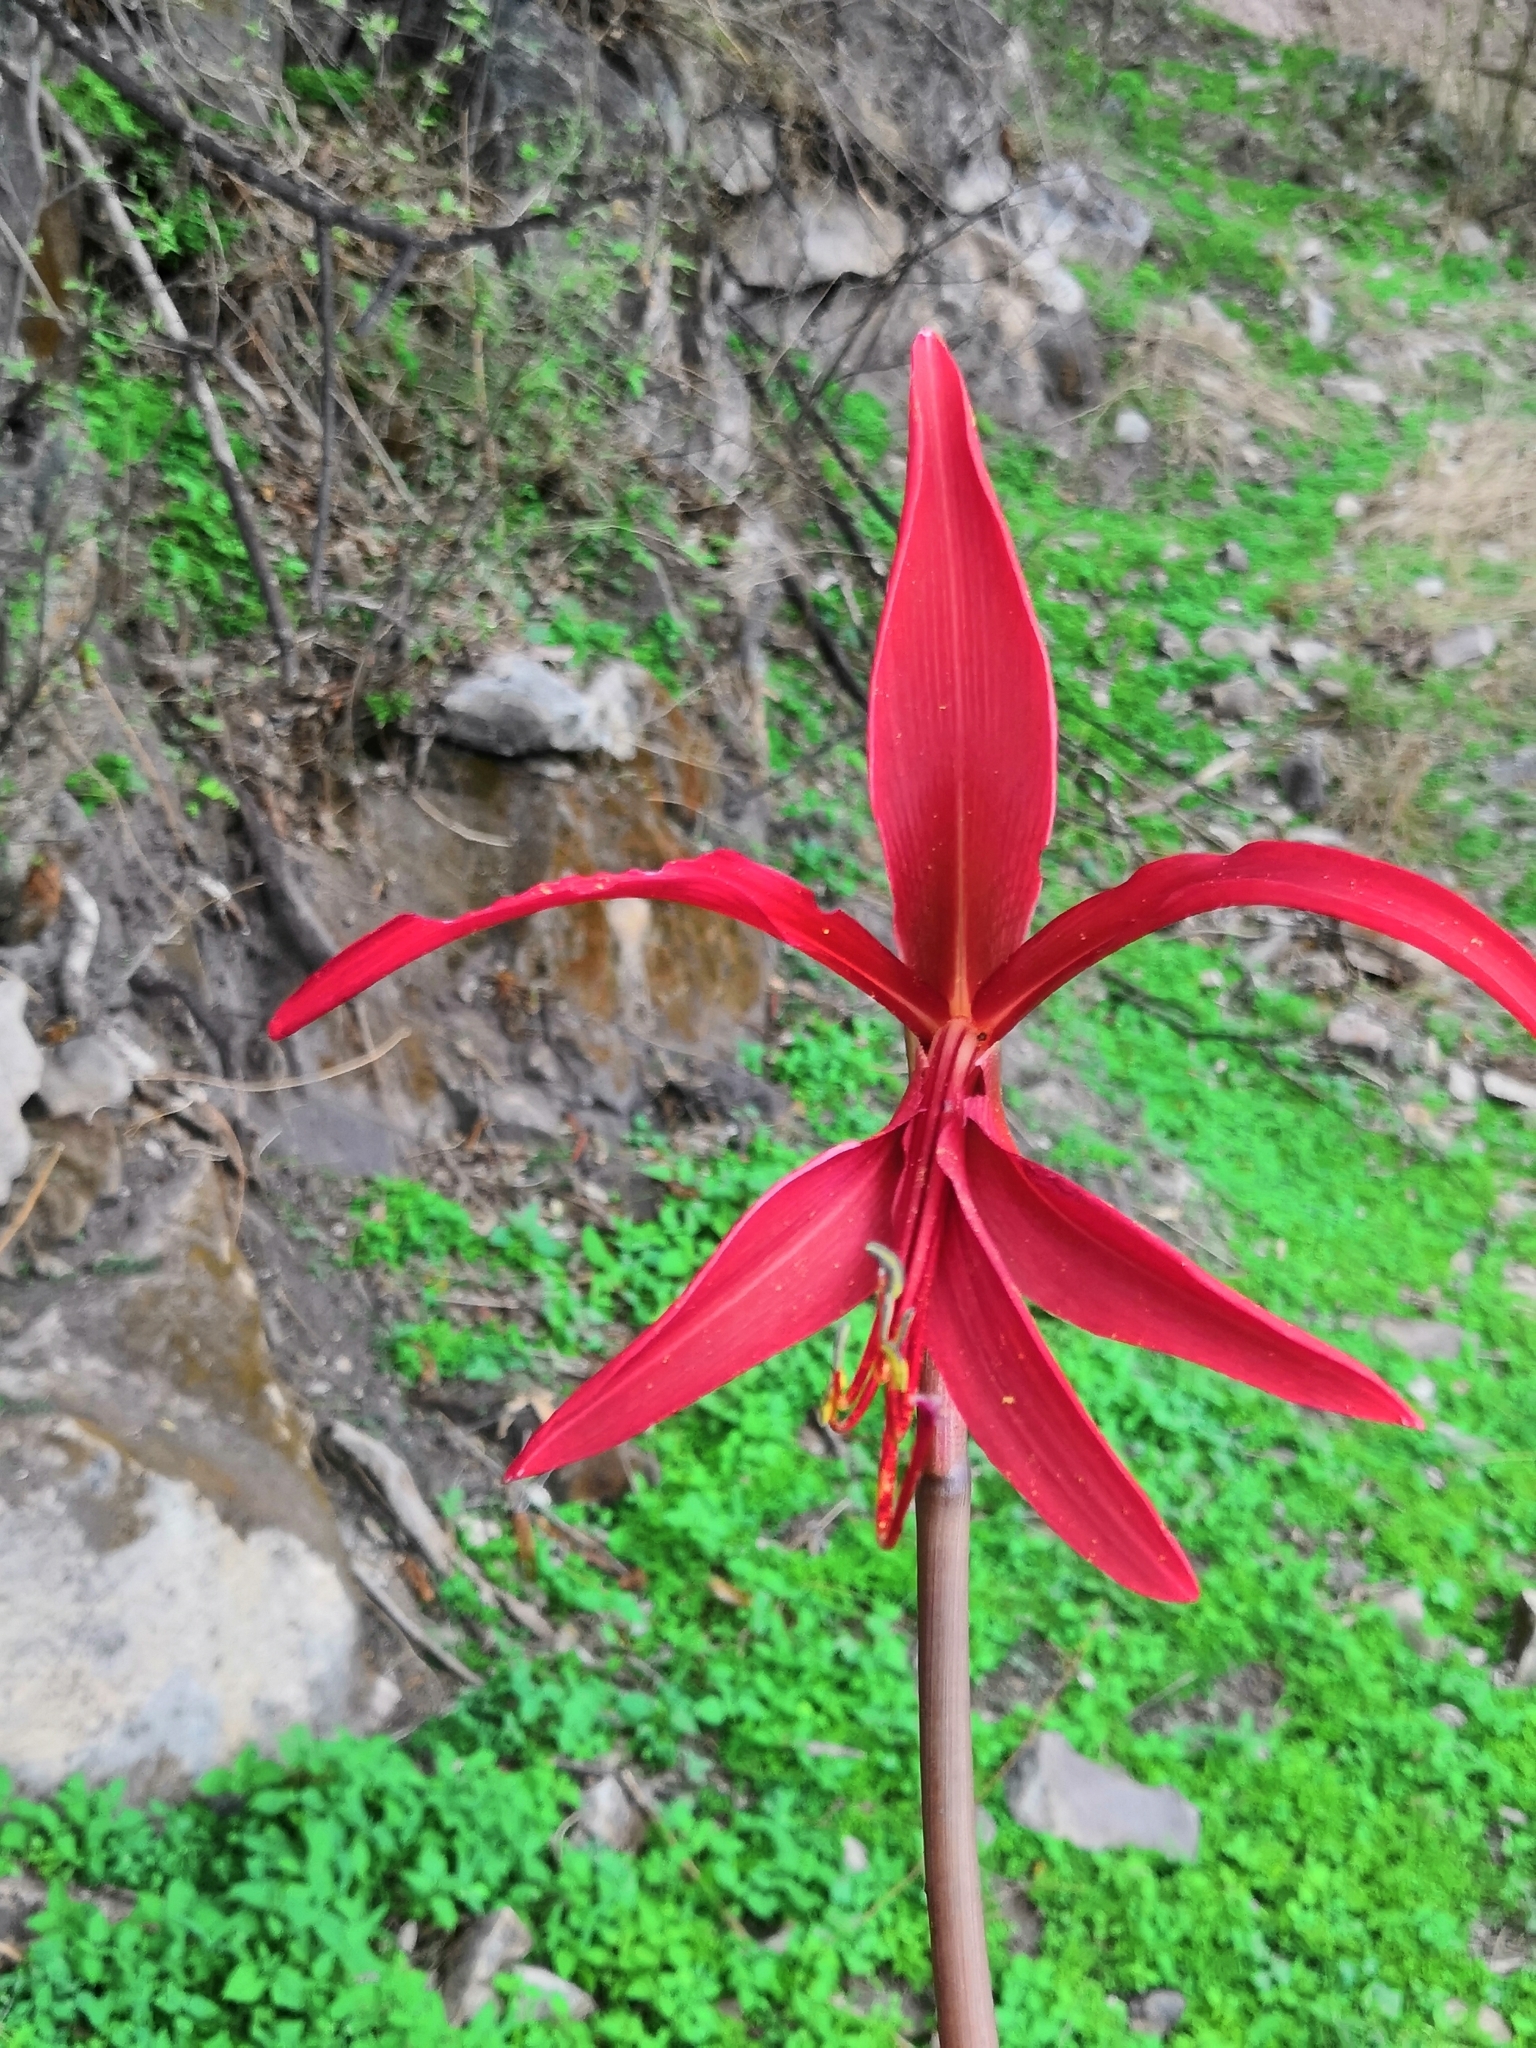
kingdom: Plantae
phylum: Tracheophyta
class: Liliopsida
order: Asparagales
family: Amaryllidaceae
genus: Sprekelia
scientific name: Sprekelia formosissima
